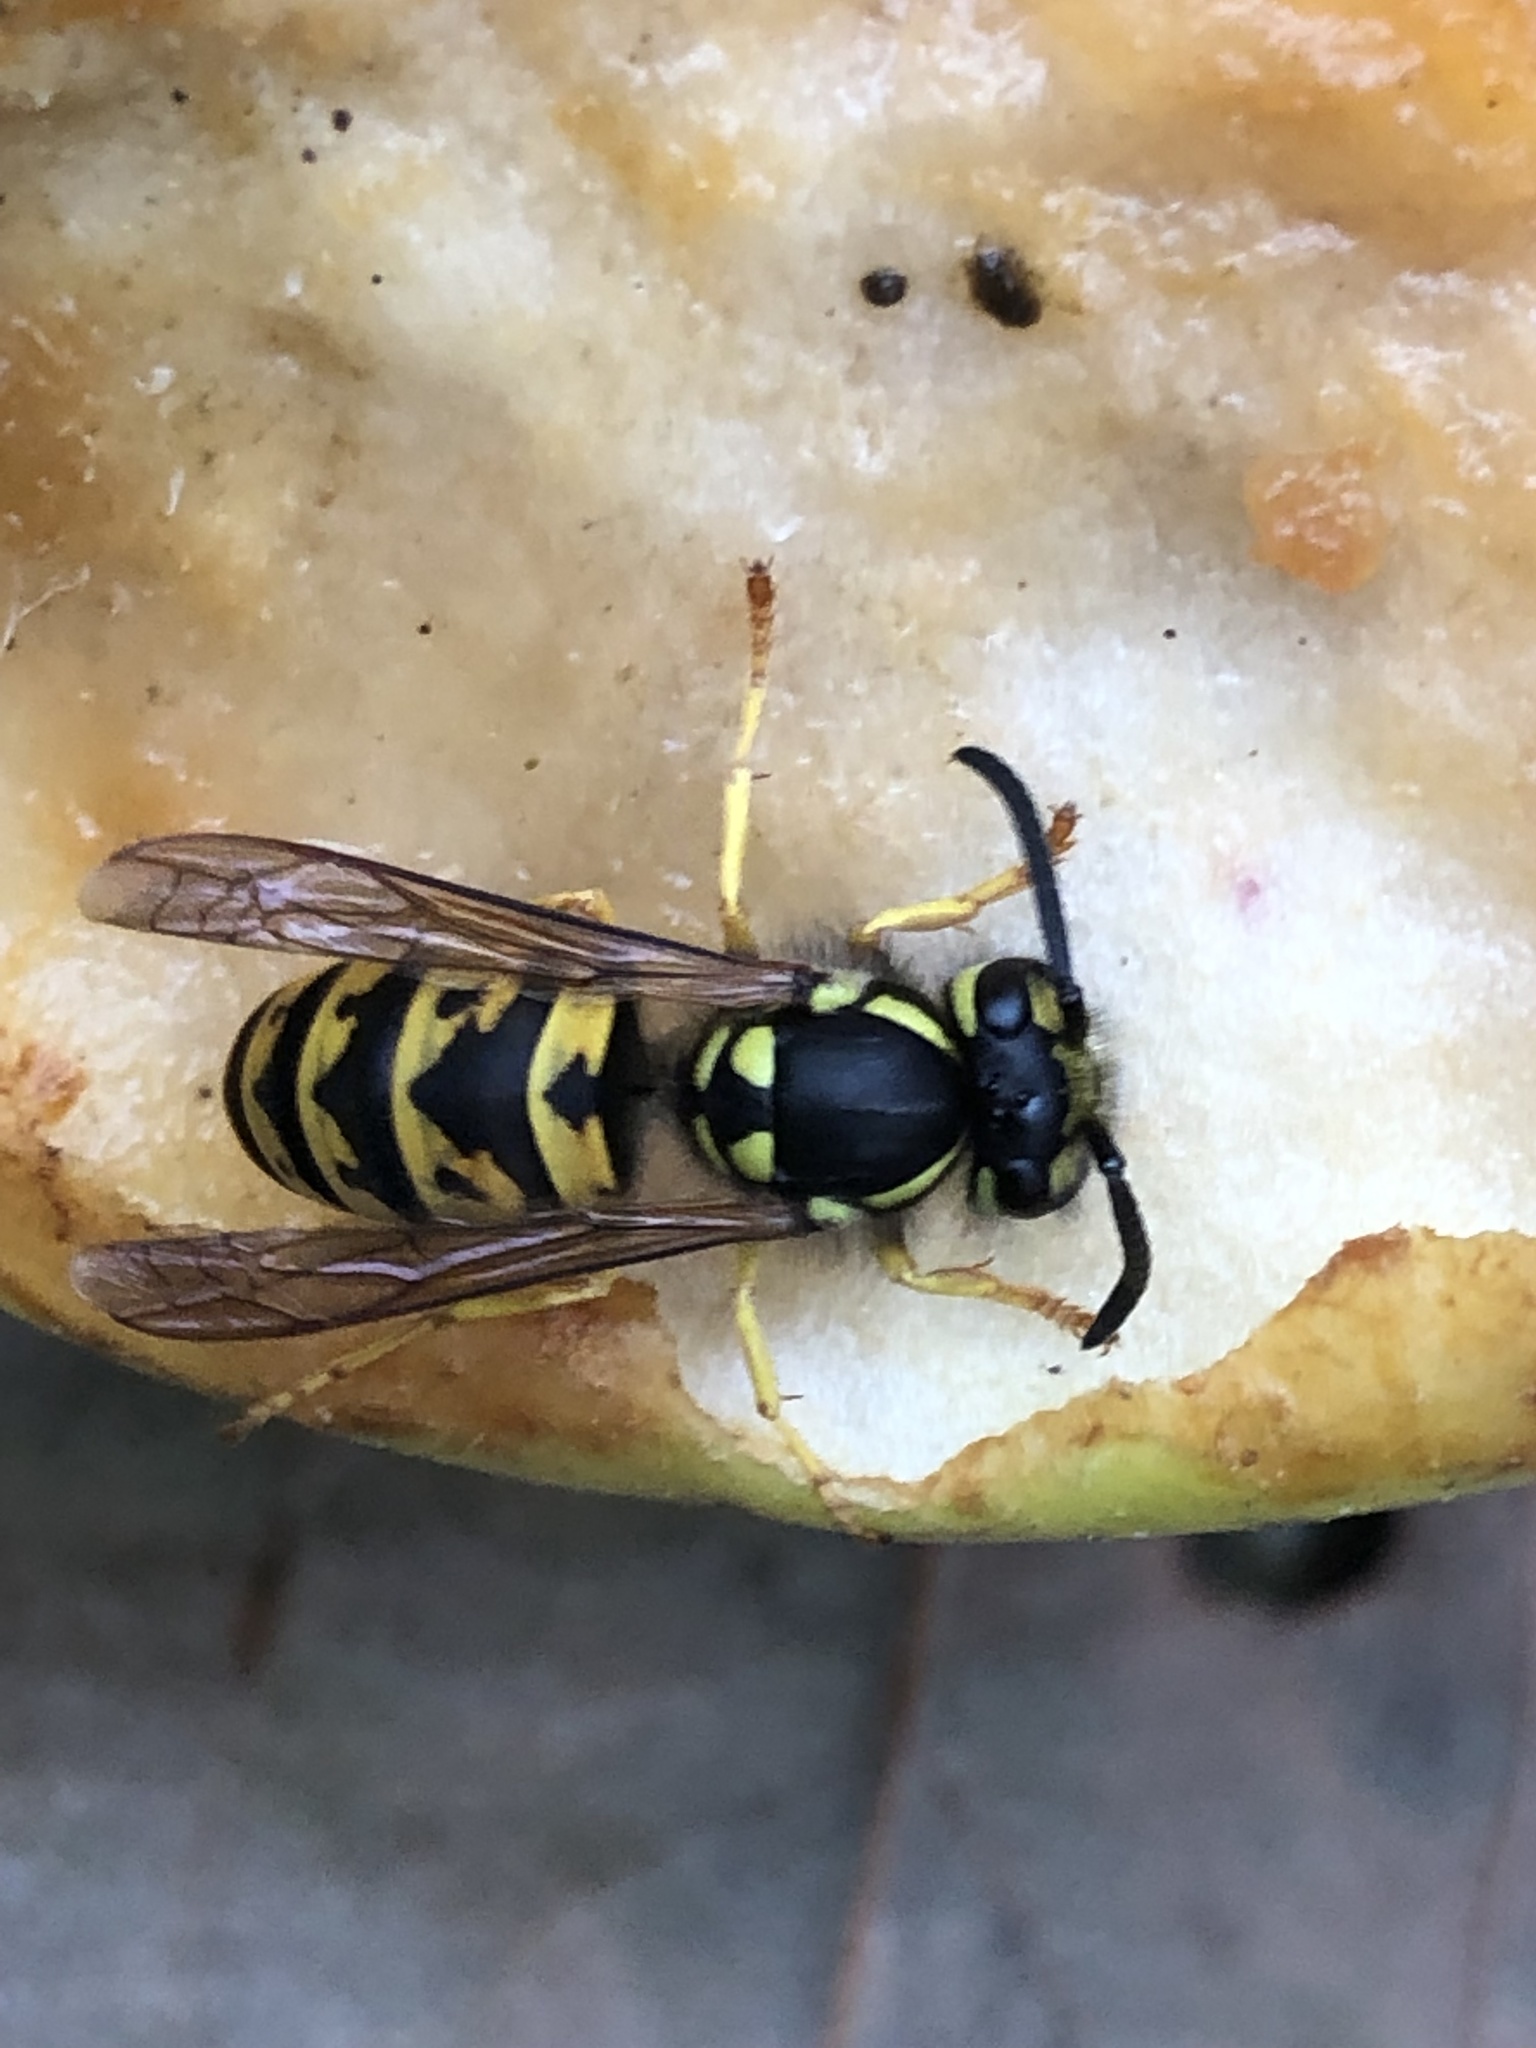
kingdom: Animalia
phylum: Arthropoda
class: Insecta
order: Hymenoptera
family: Vespidae
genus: Vespula
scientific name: Vespula germanica
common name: German wasp
